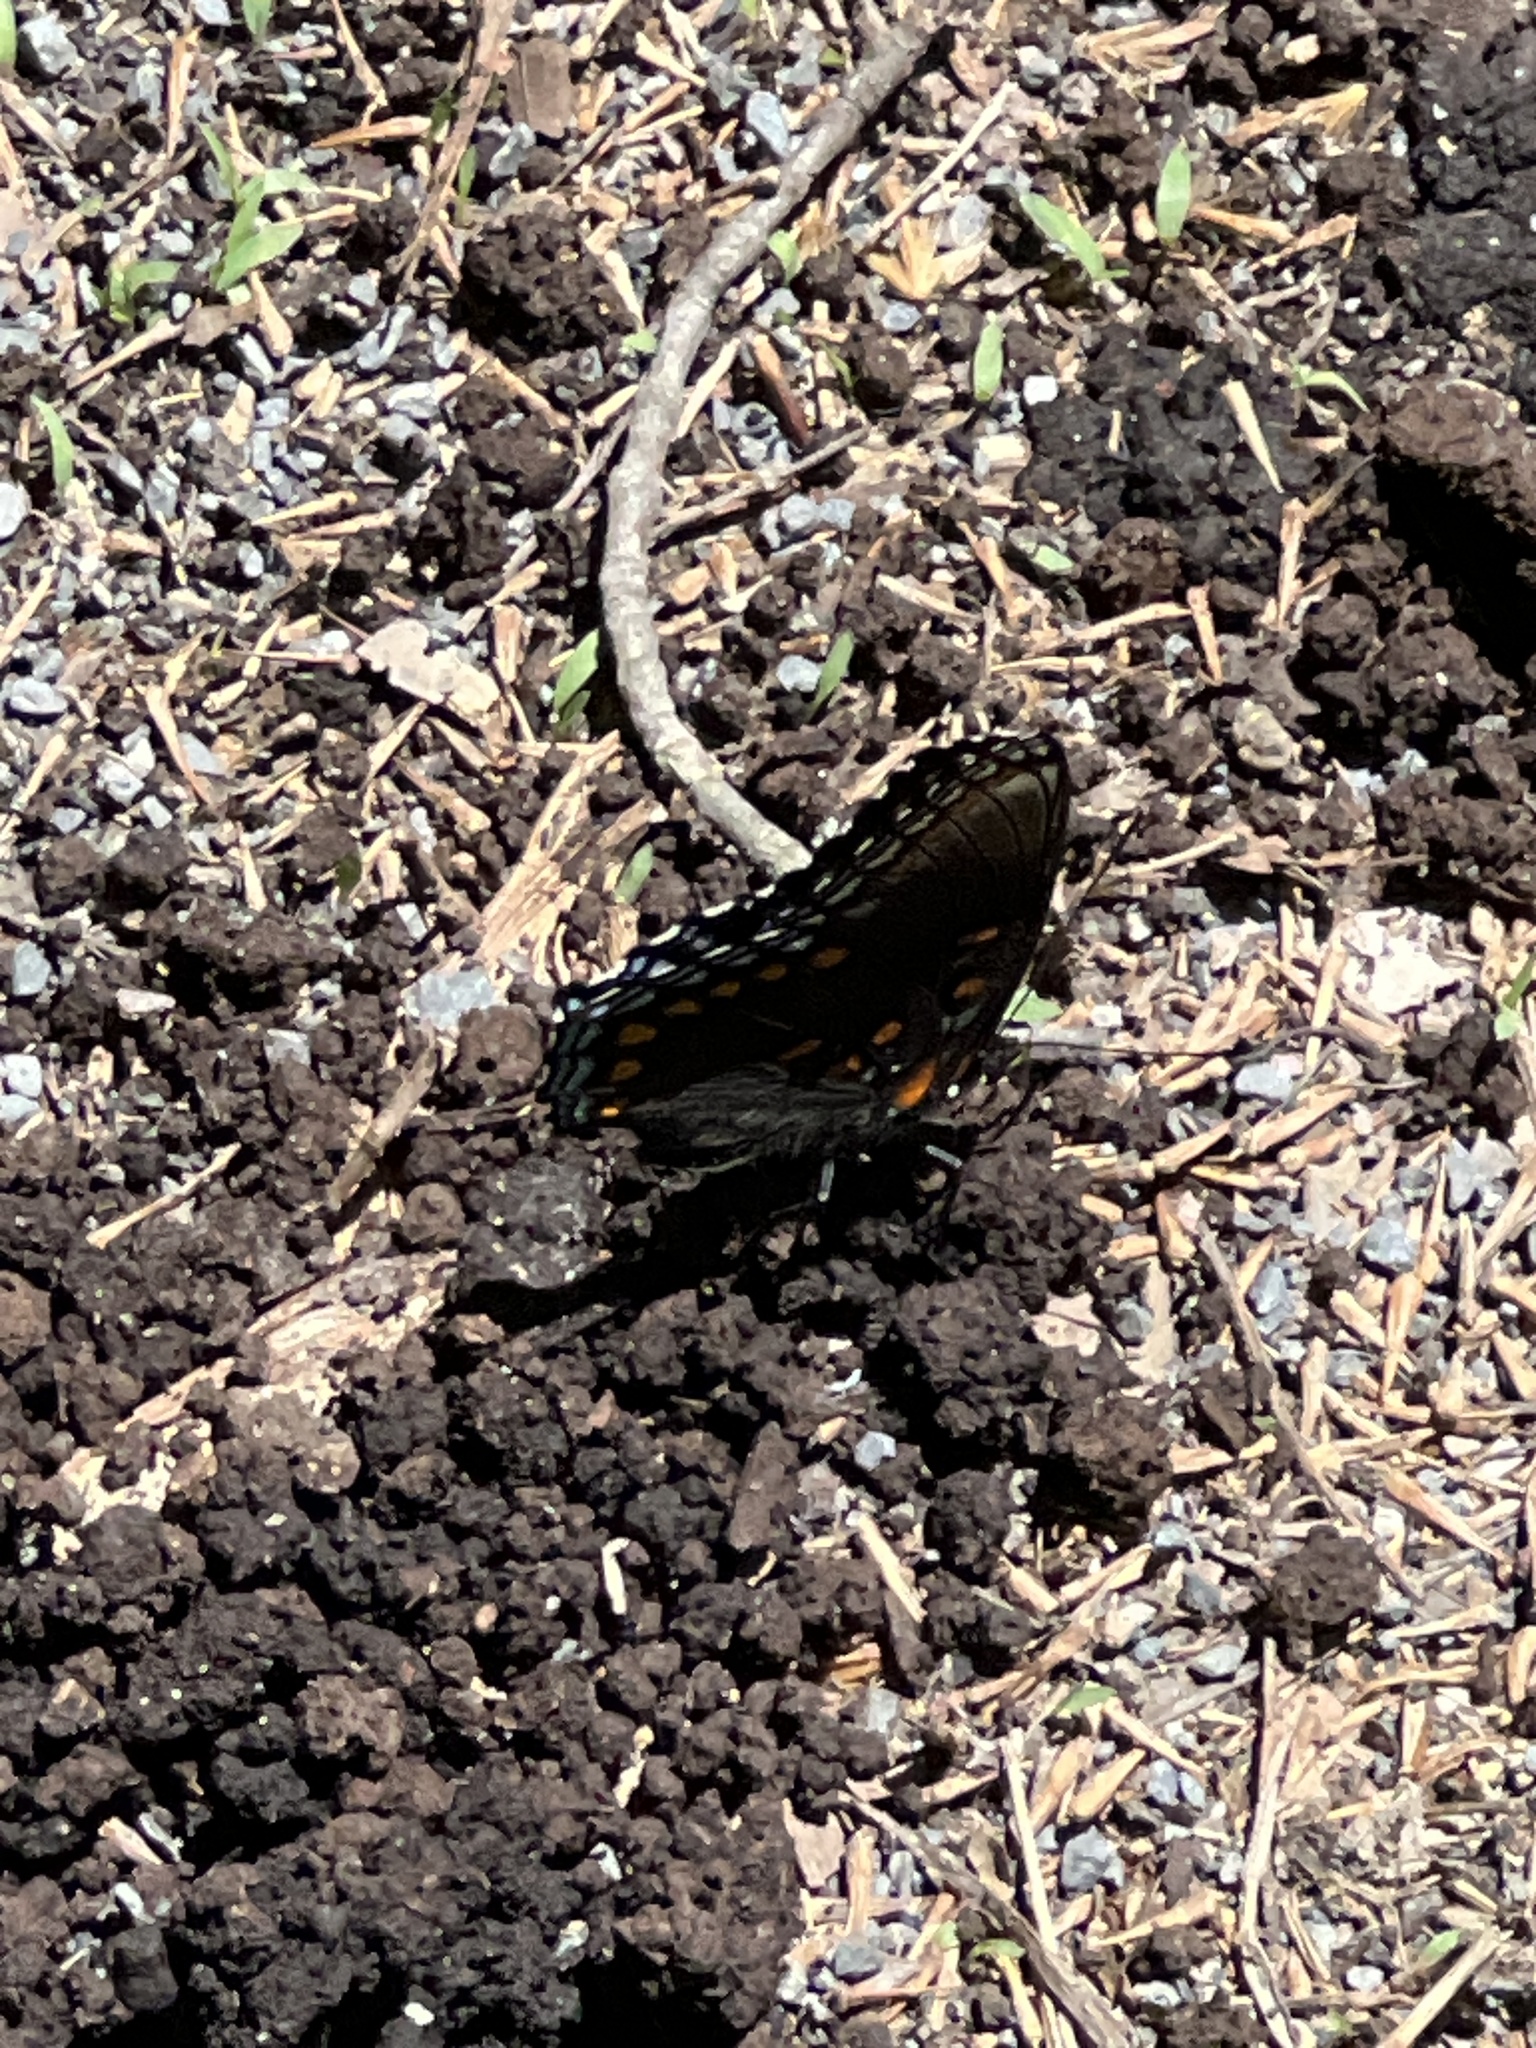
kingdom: Animalia
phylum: Arthropoda
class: Insecta
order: Lepidoptera
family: Nymphalidae
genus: Limenitis
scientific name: Limenitis astyanax
